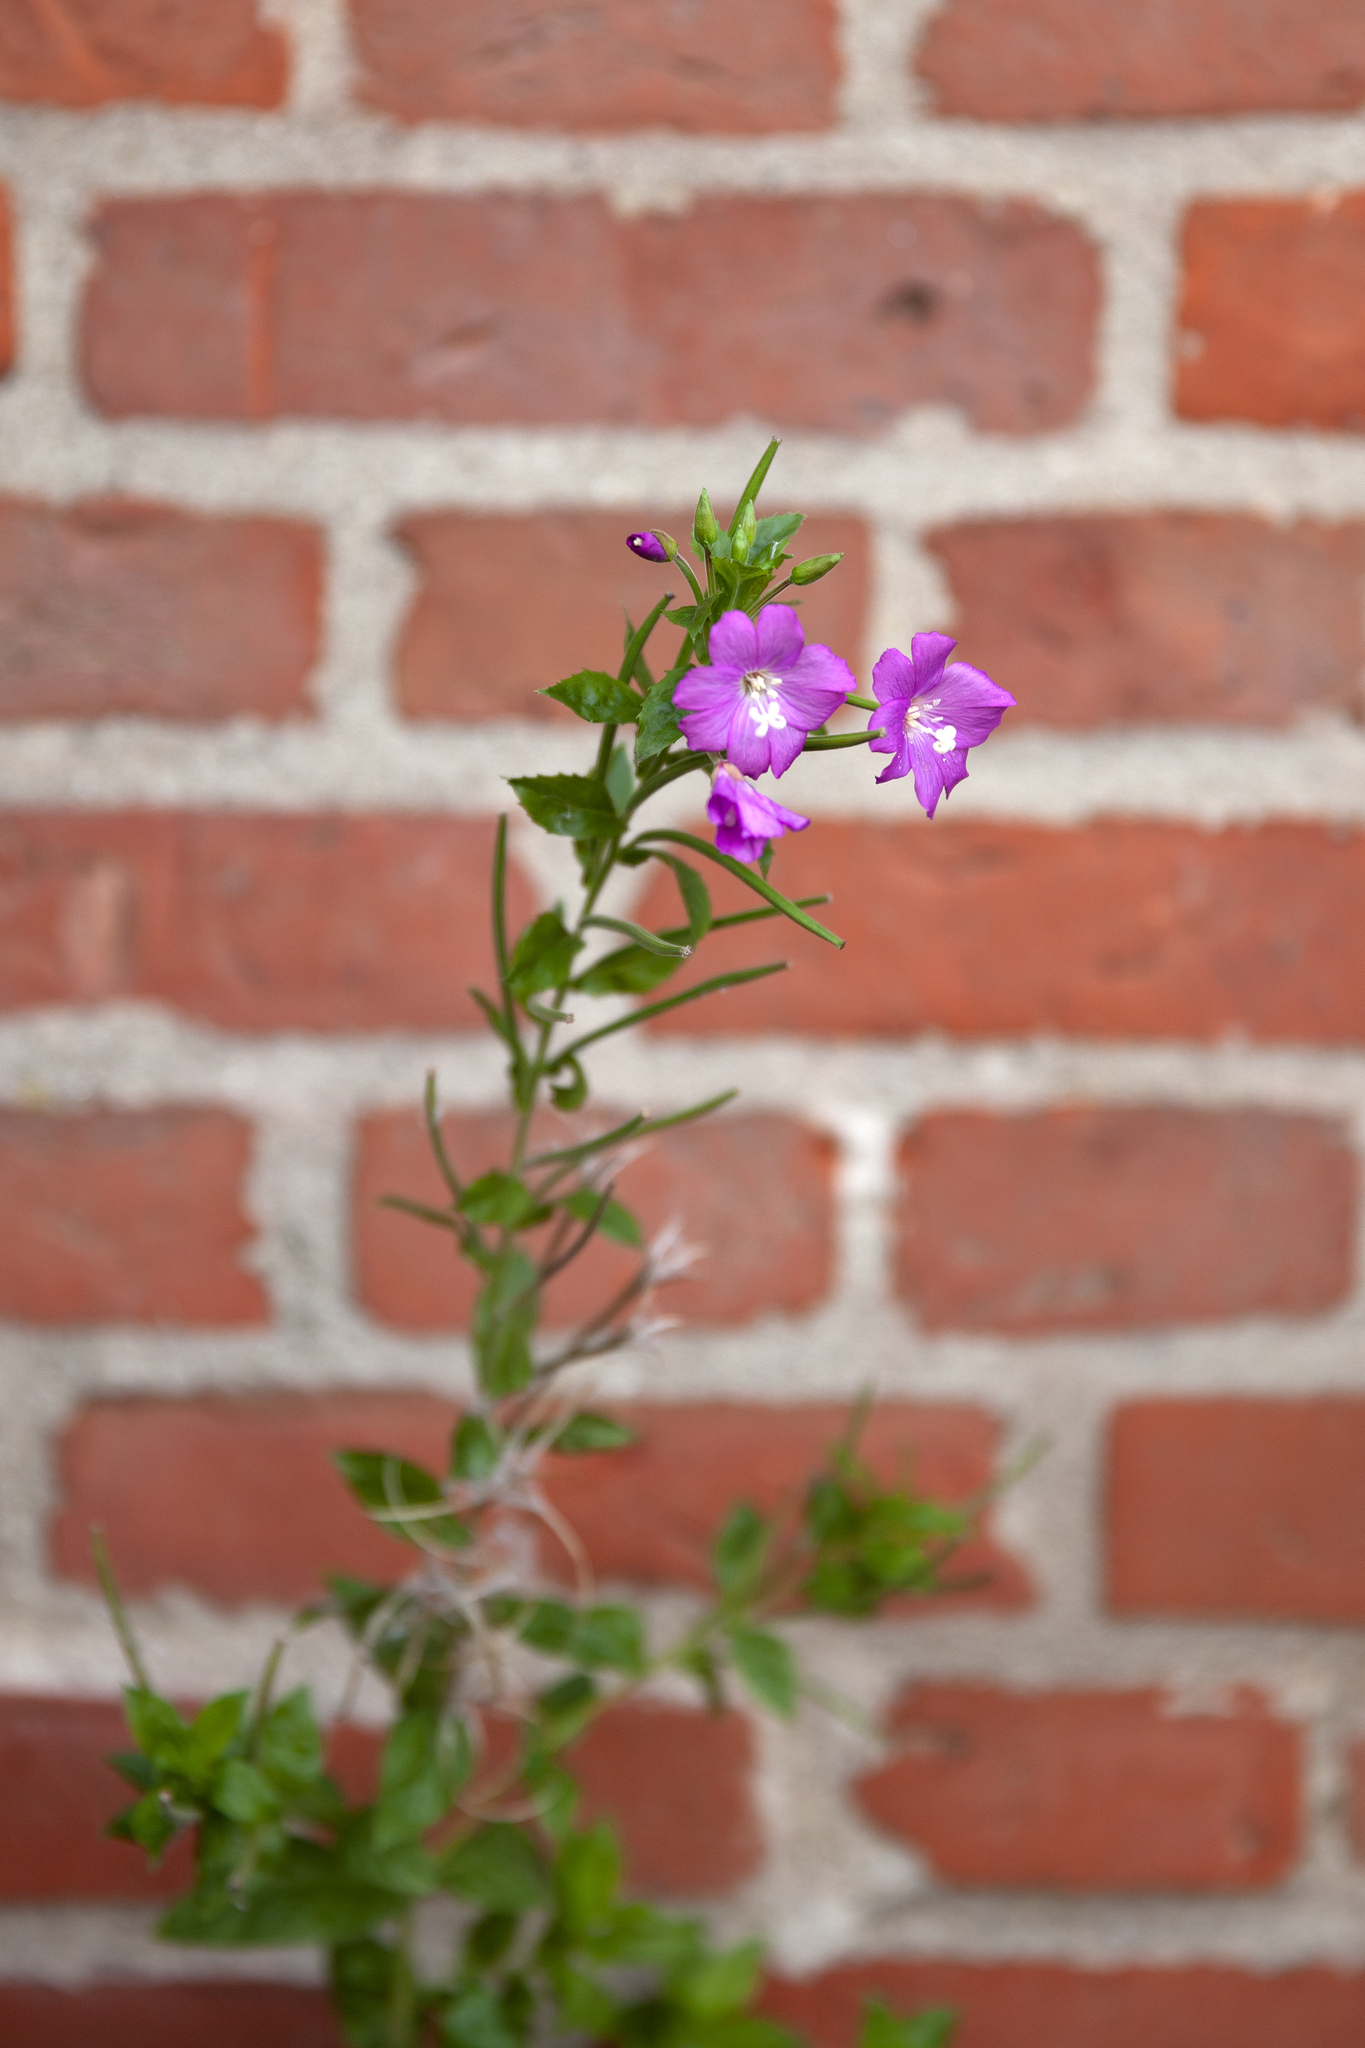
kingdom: Plantae
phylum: Tracheophyta
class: Magnoliopsida
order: Myrtales
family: Onagraceae
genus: Epilobium
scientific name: Epilobium hirsutum
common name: Great willowherb
